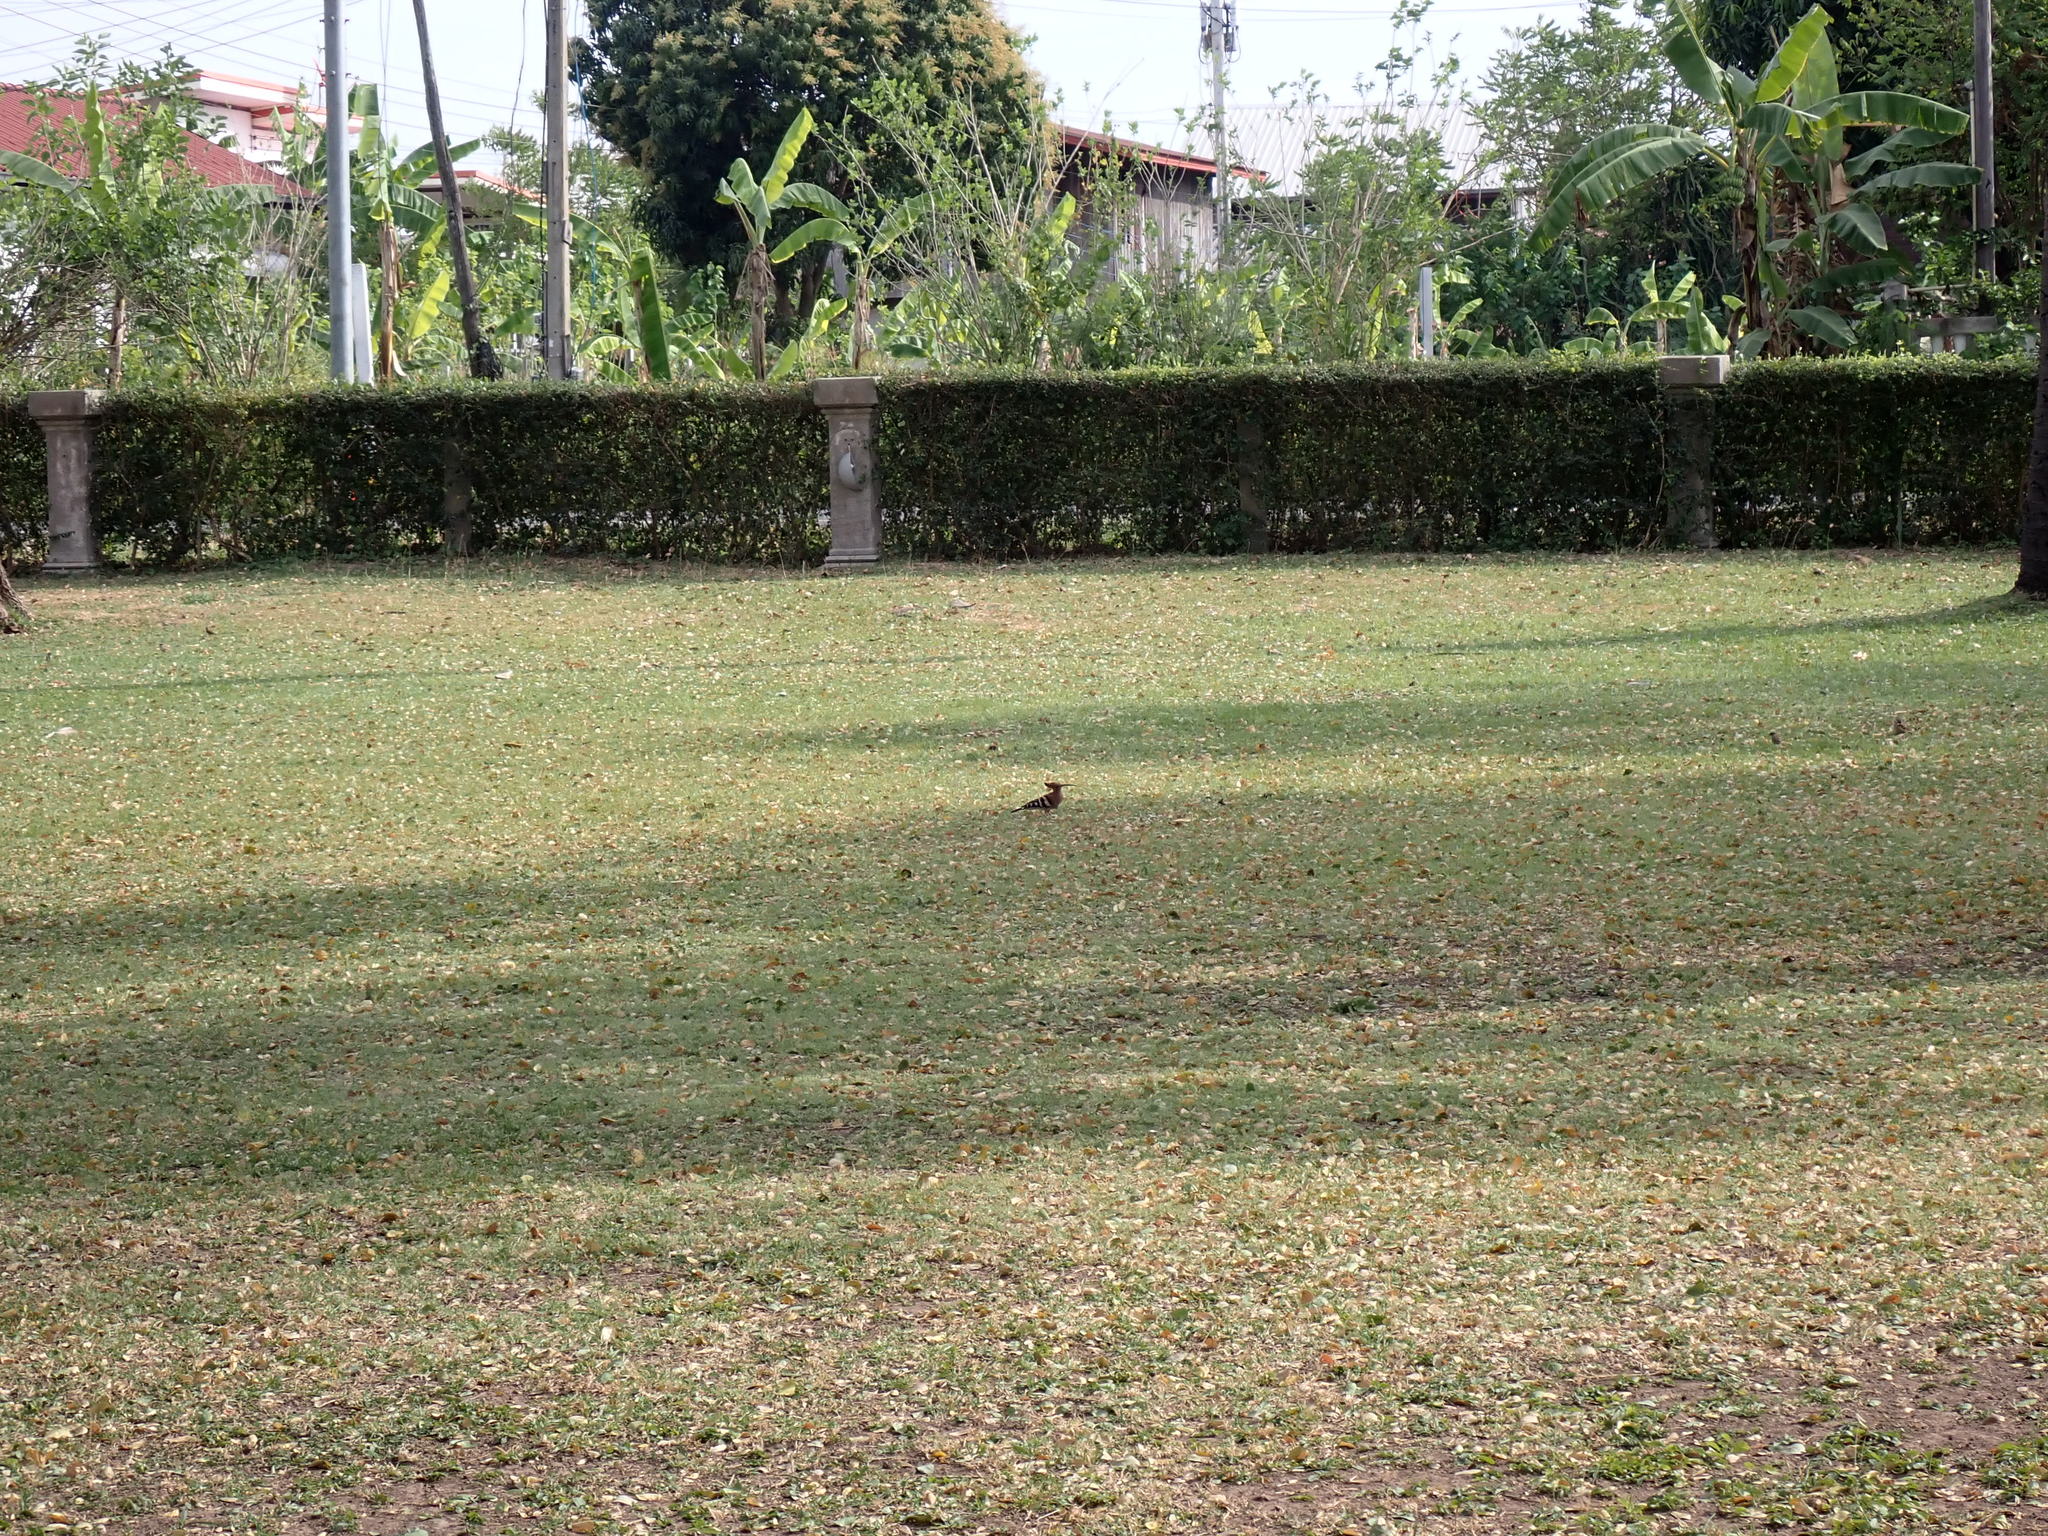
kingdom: Animalia
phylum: Chordata
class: Aves
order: Bucerotiformes
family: Upupidae
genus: Upupa
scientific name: Upupa epops
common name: Eurasian hoopoe
